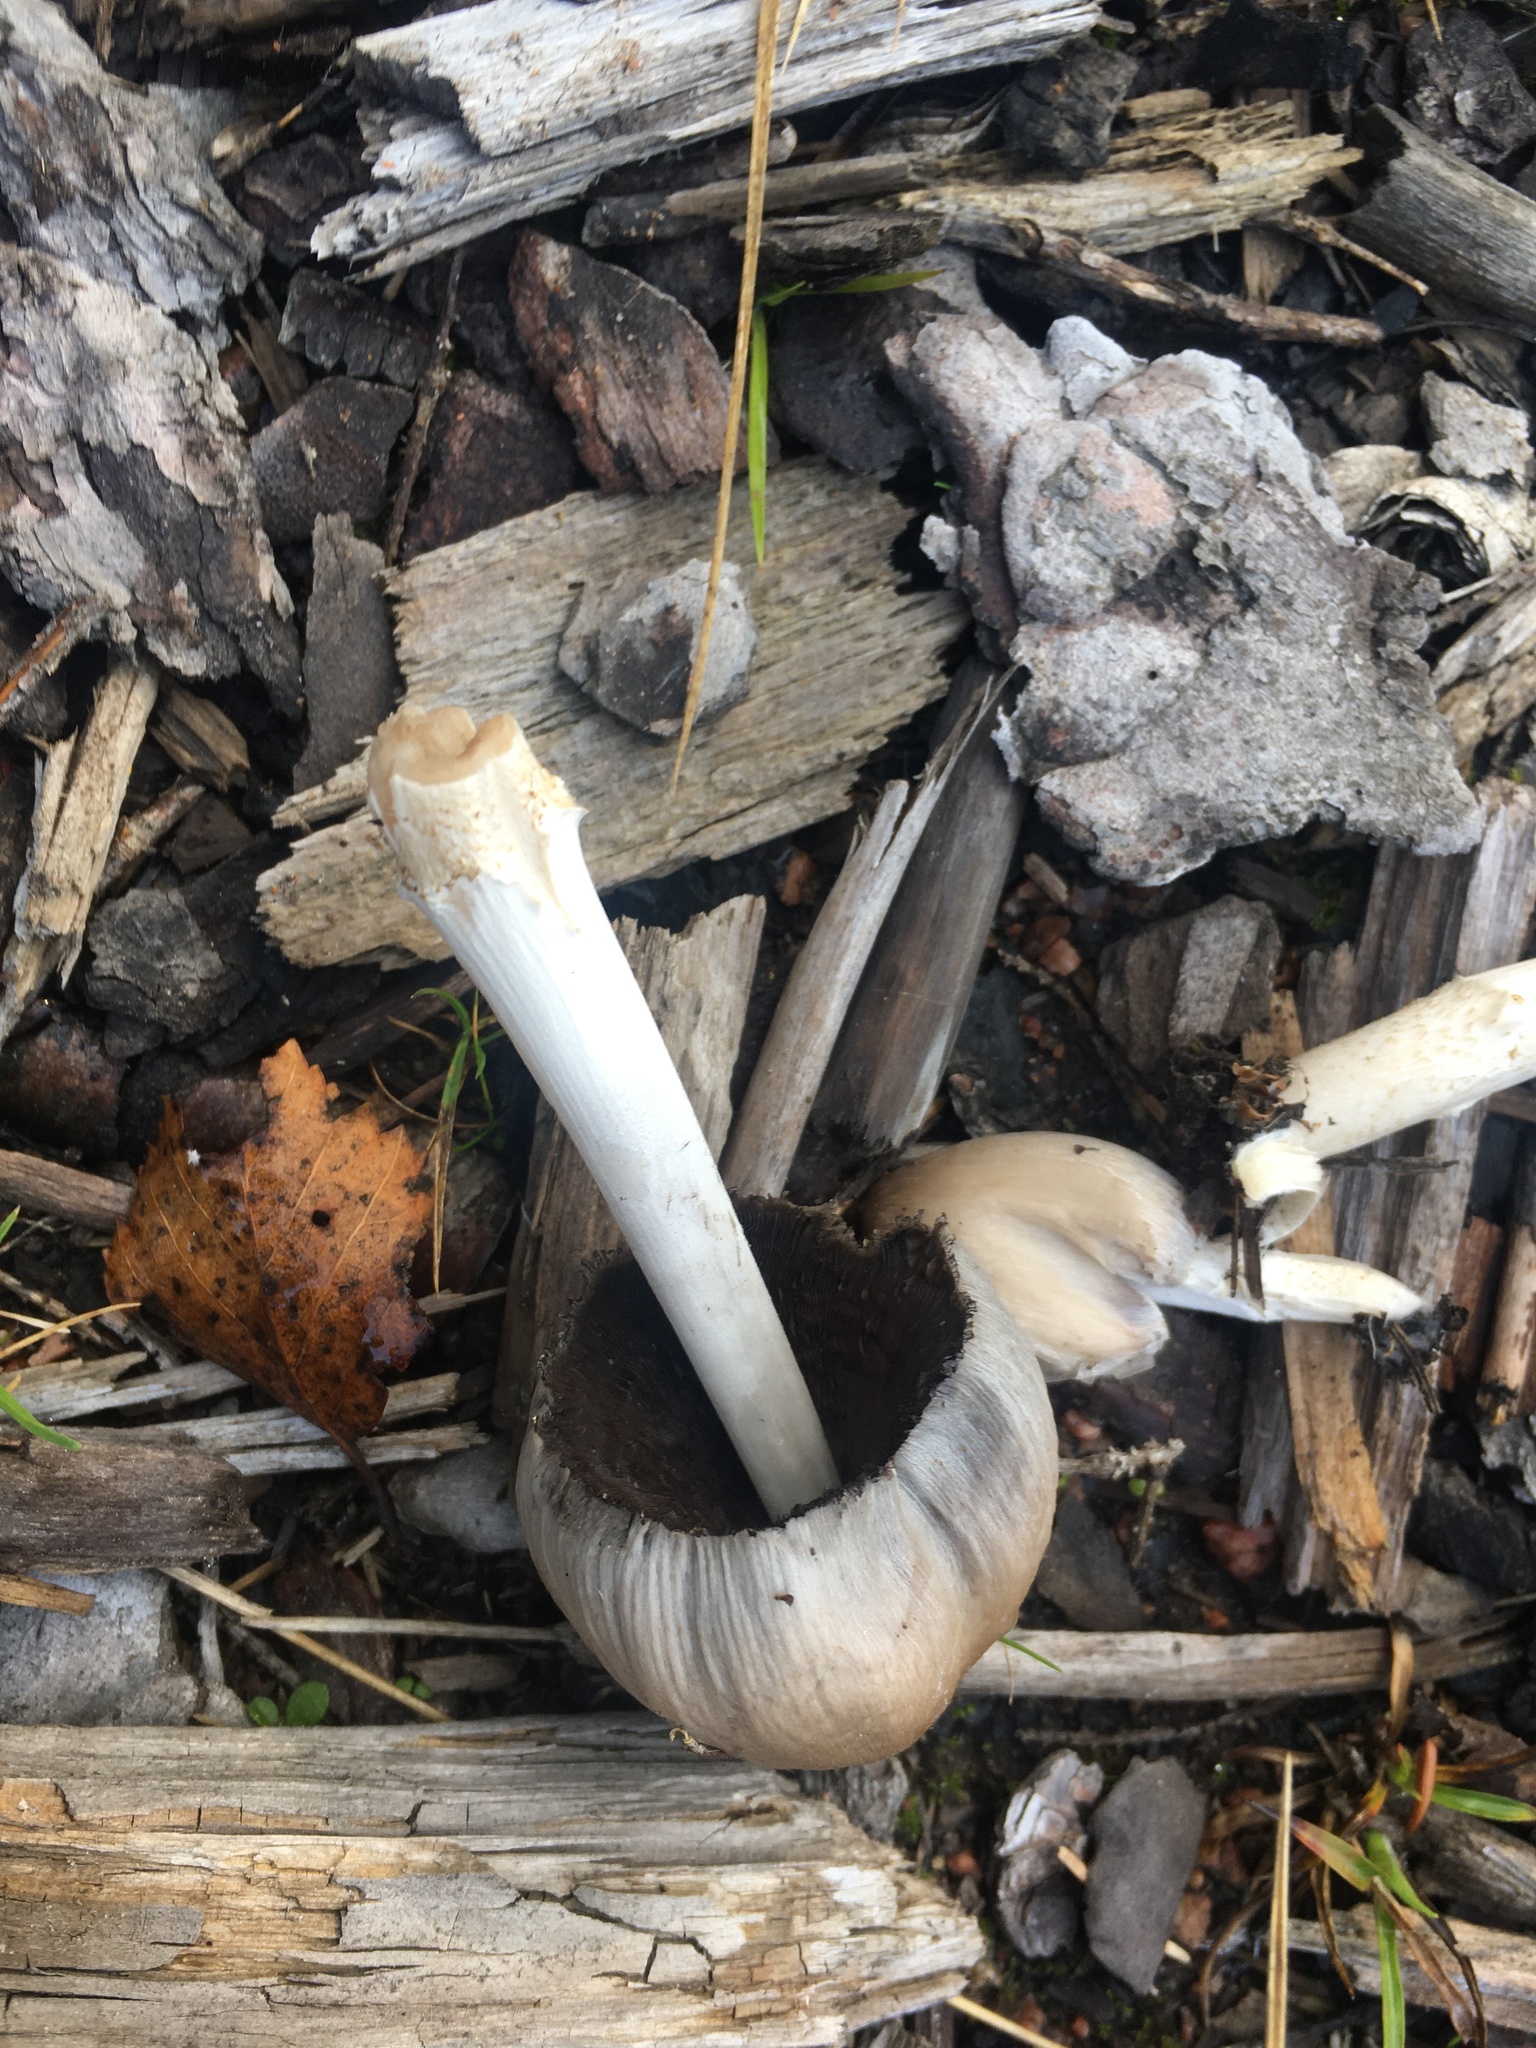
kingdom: Fungi
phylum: Basidiomycota
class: Agaricomycetes
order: Agaricales
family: Psathyrellaceae
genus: Coprinopsis
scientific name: Coprinopsis atramentaria
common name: Common ink-cap
